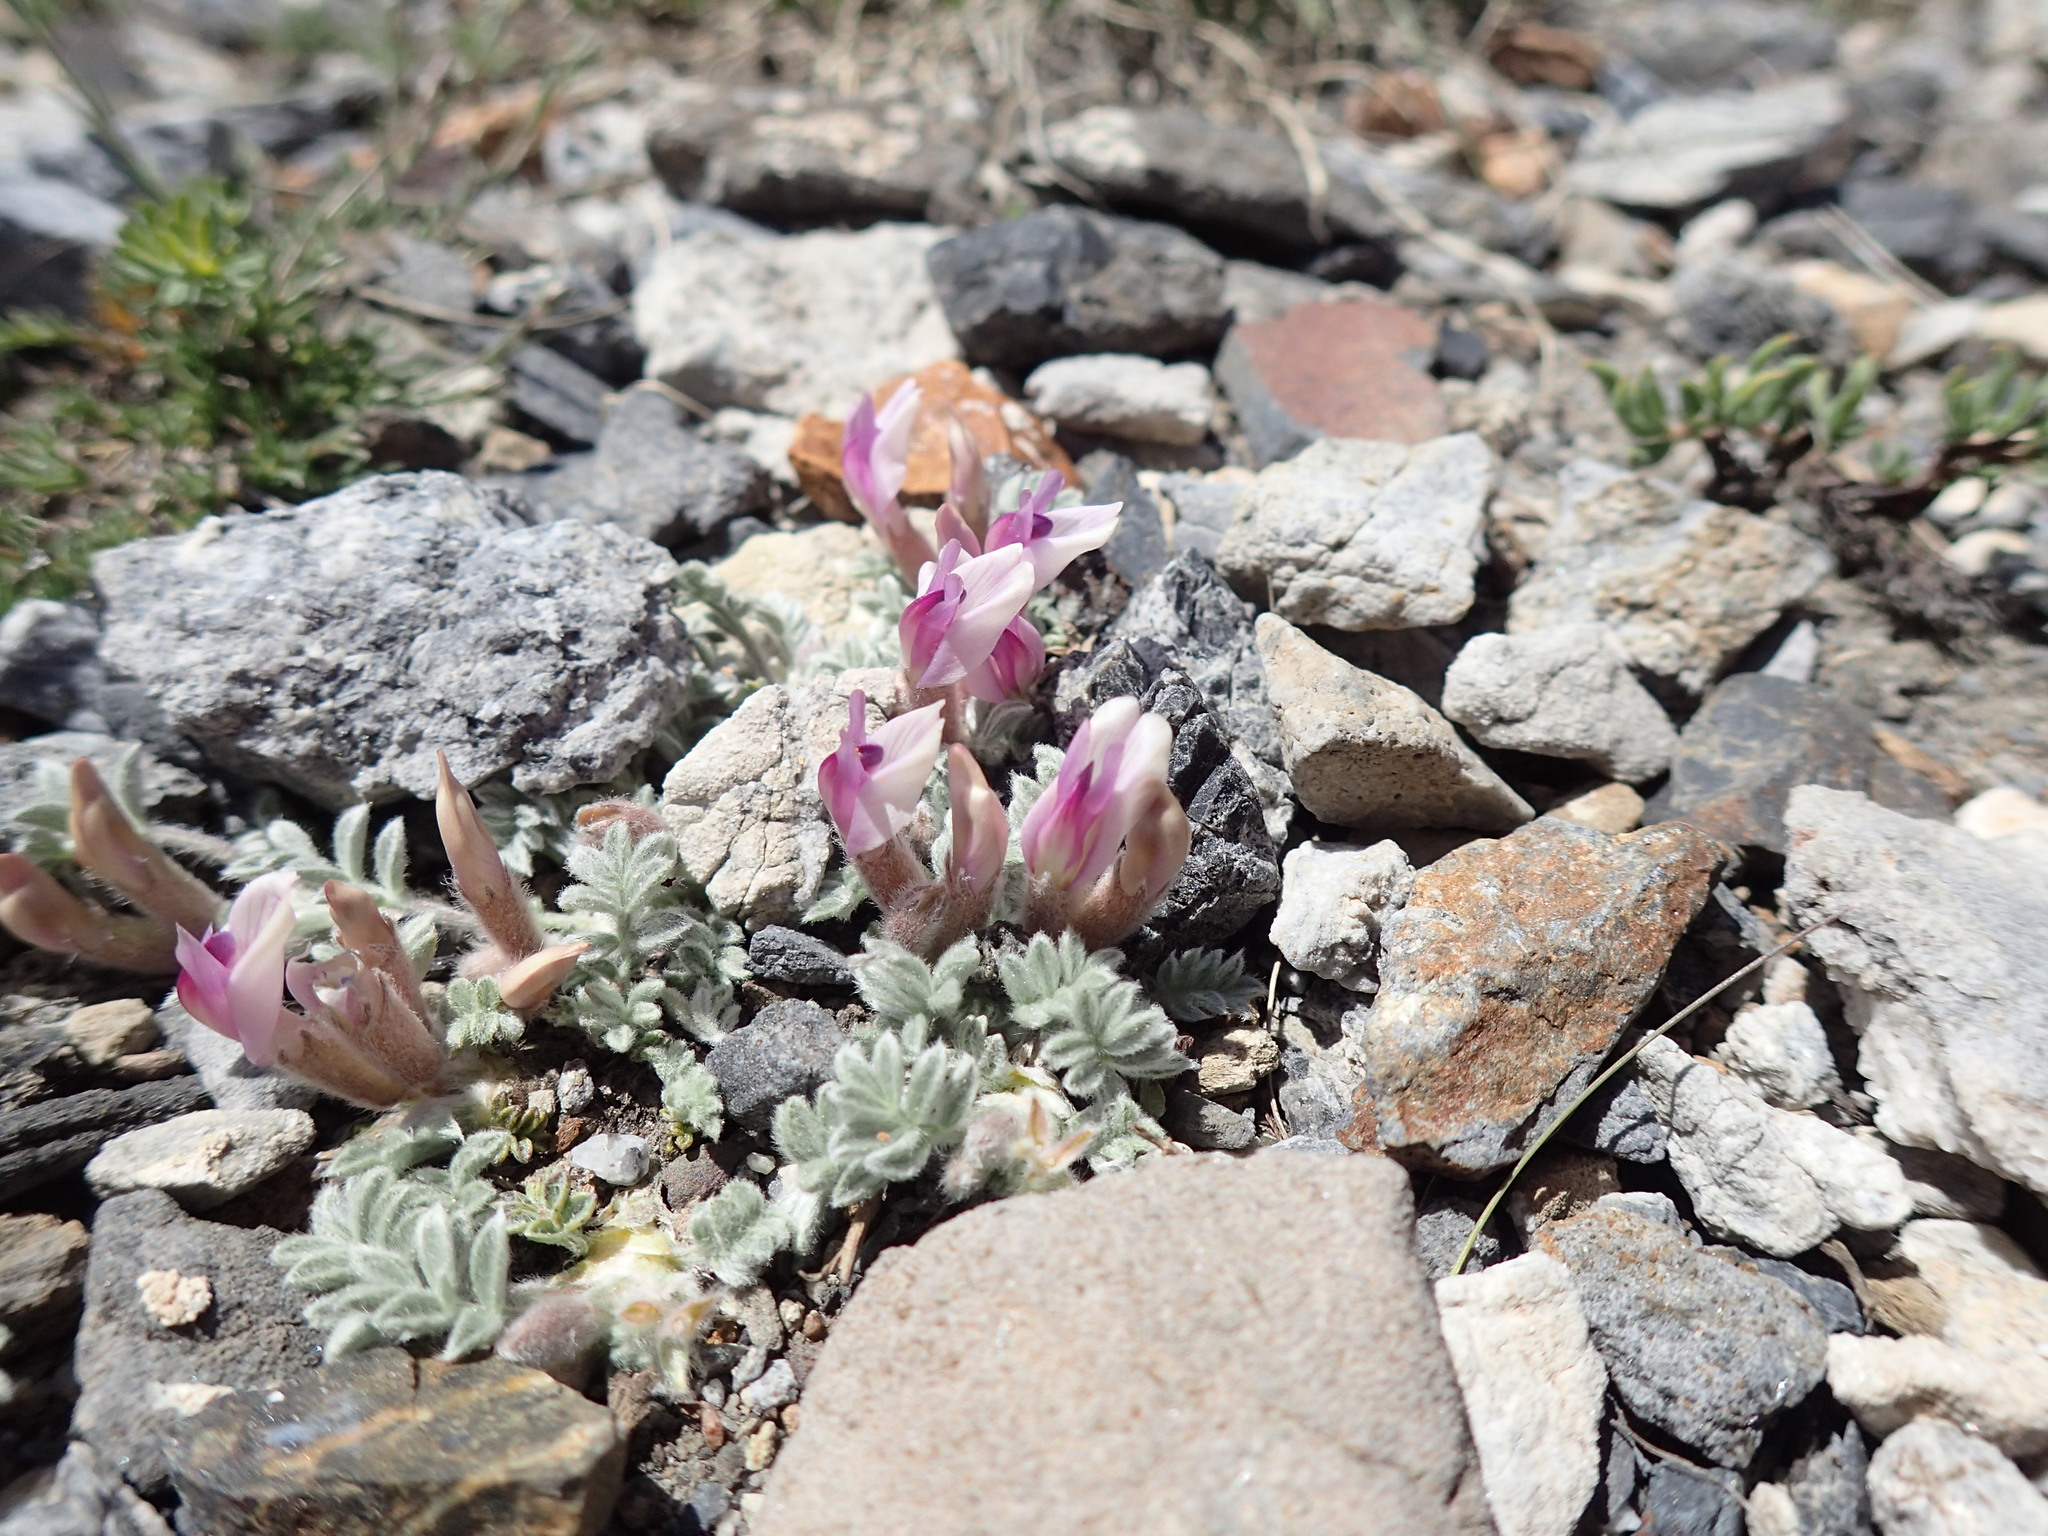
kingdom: Plantae
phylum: Tracheophyta
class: Magnoliopsida
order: Fabales
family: Fabaceae
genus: Astragalus
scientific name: Astragalus purshii
